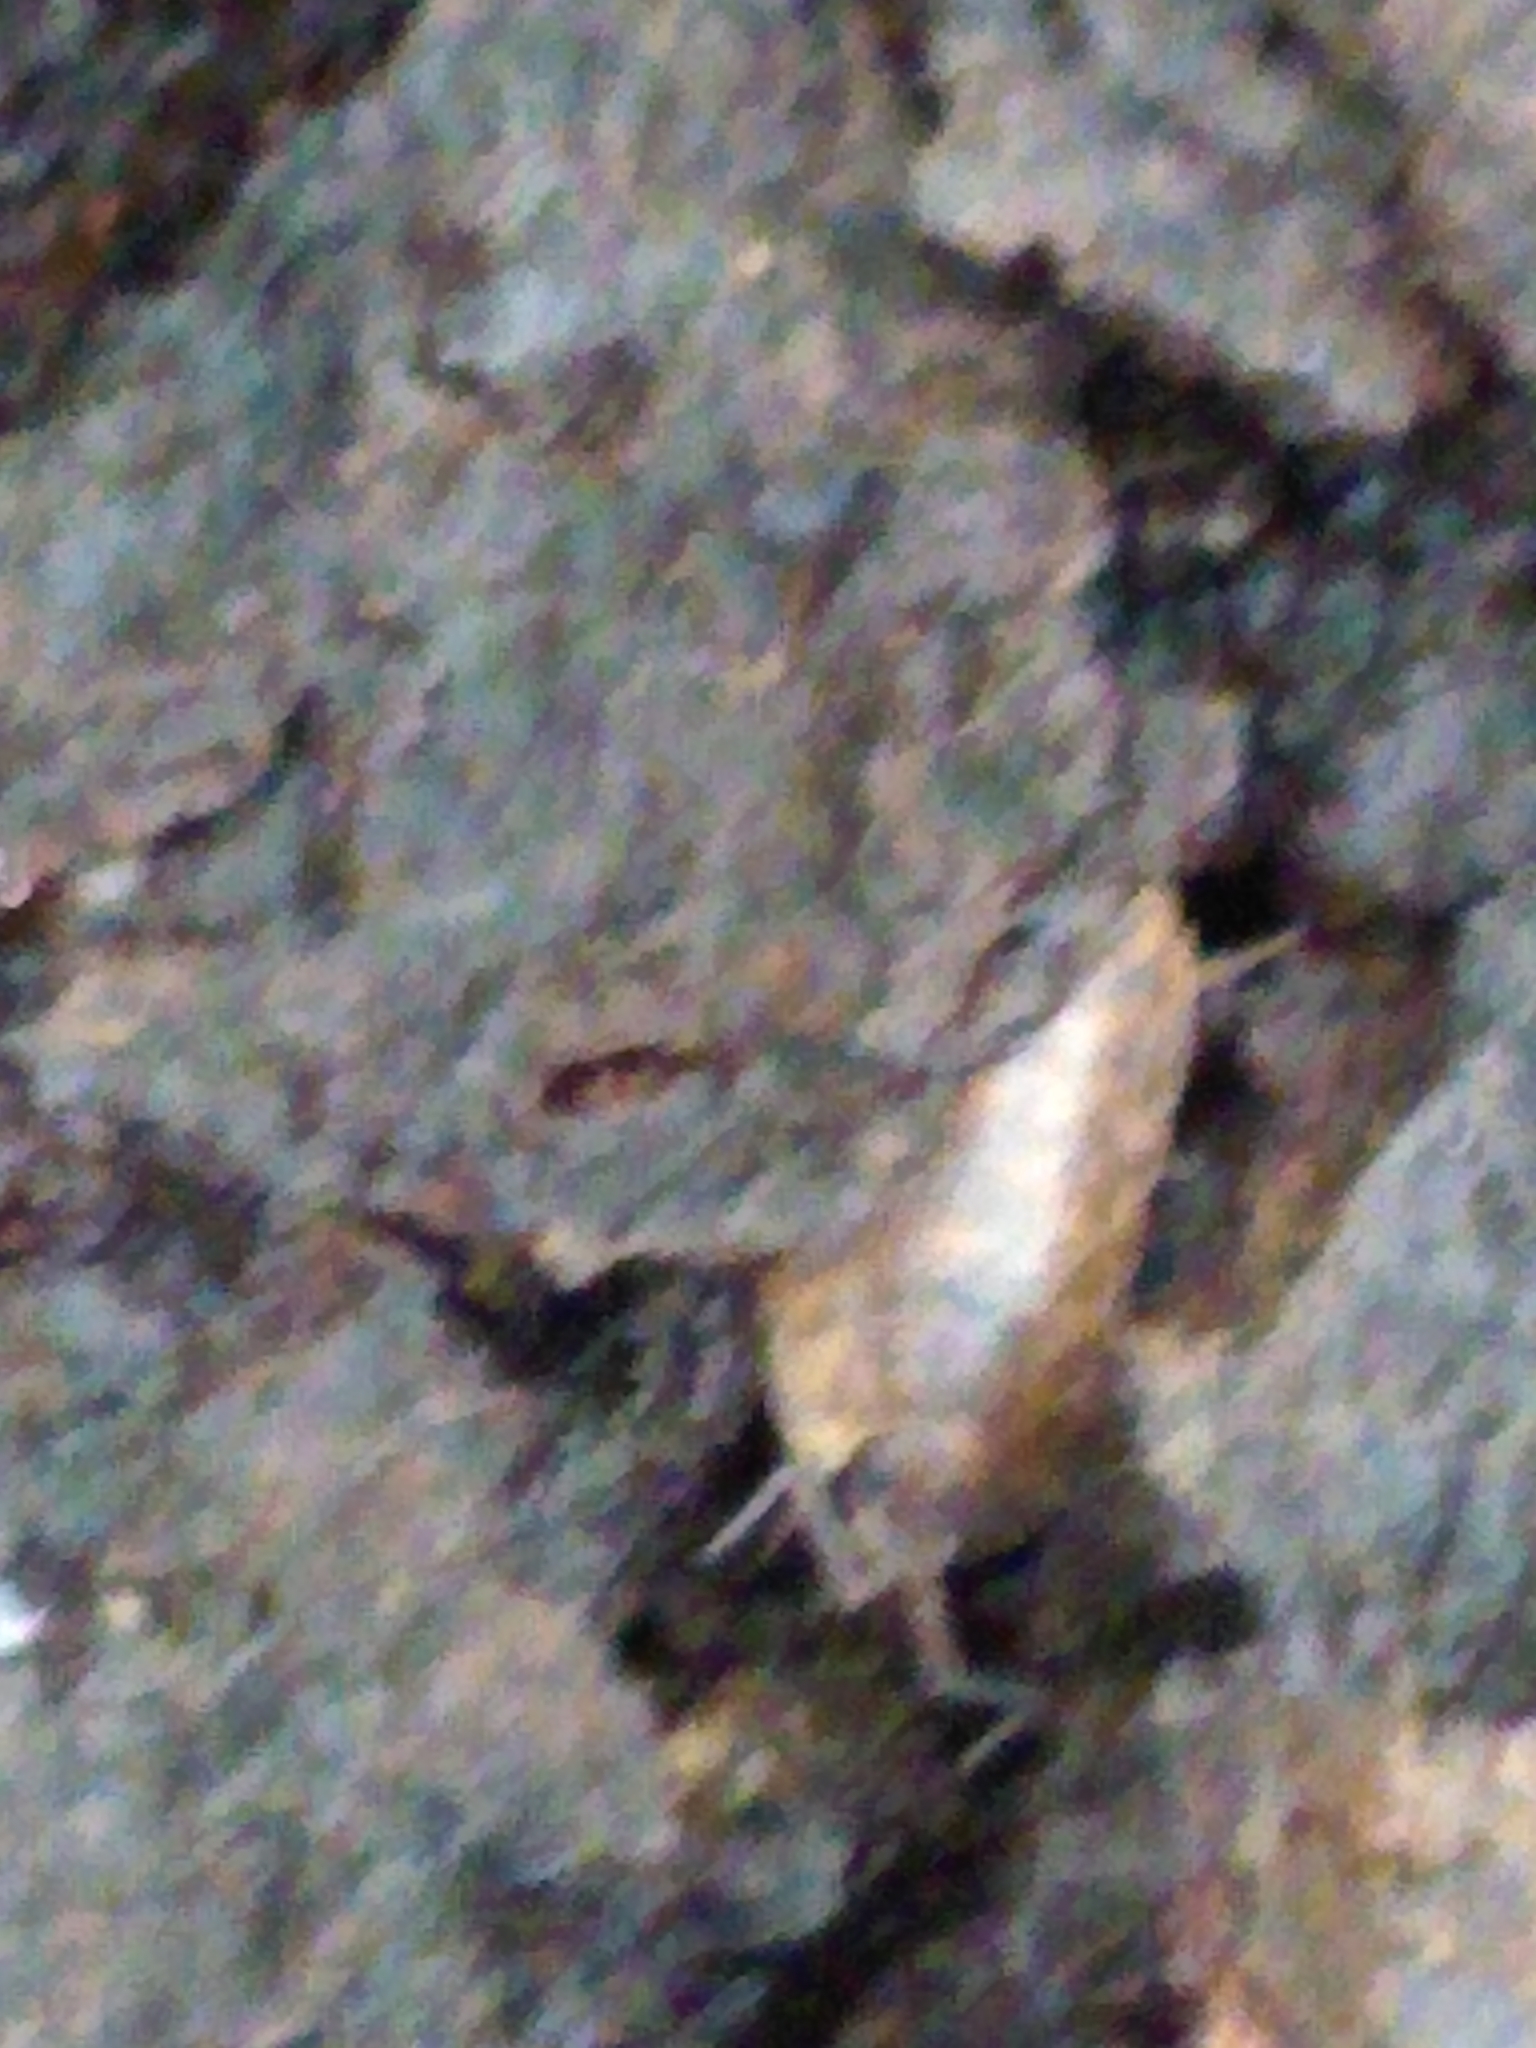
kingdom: Animalia
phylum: Arthropoda
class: Malacostraca
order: Isopoda
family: Trachelipodidae
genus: Trachelipus
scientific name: Trachelipus rathkii
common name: Isopod
